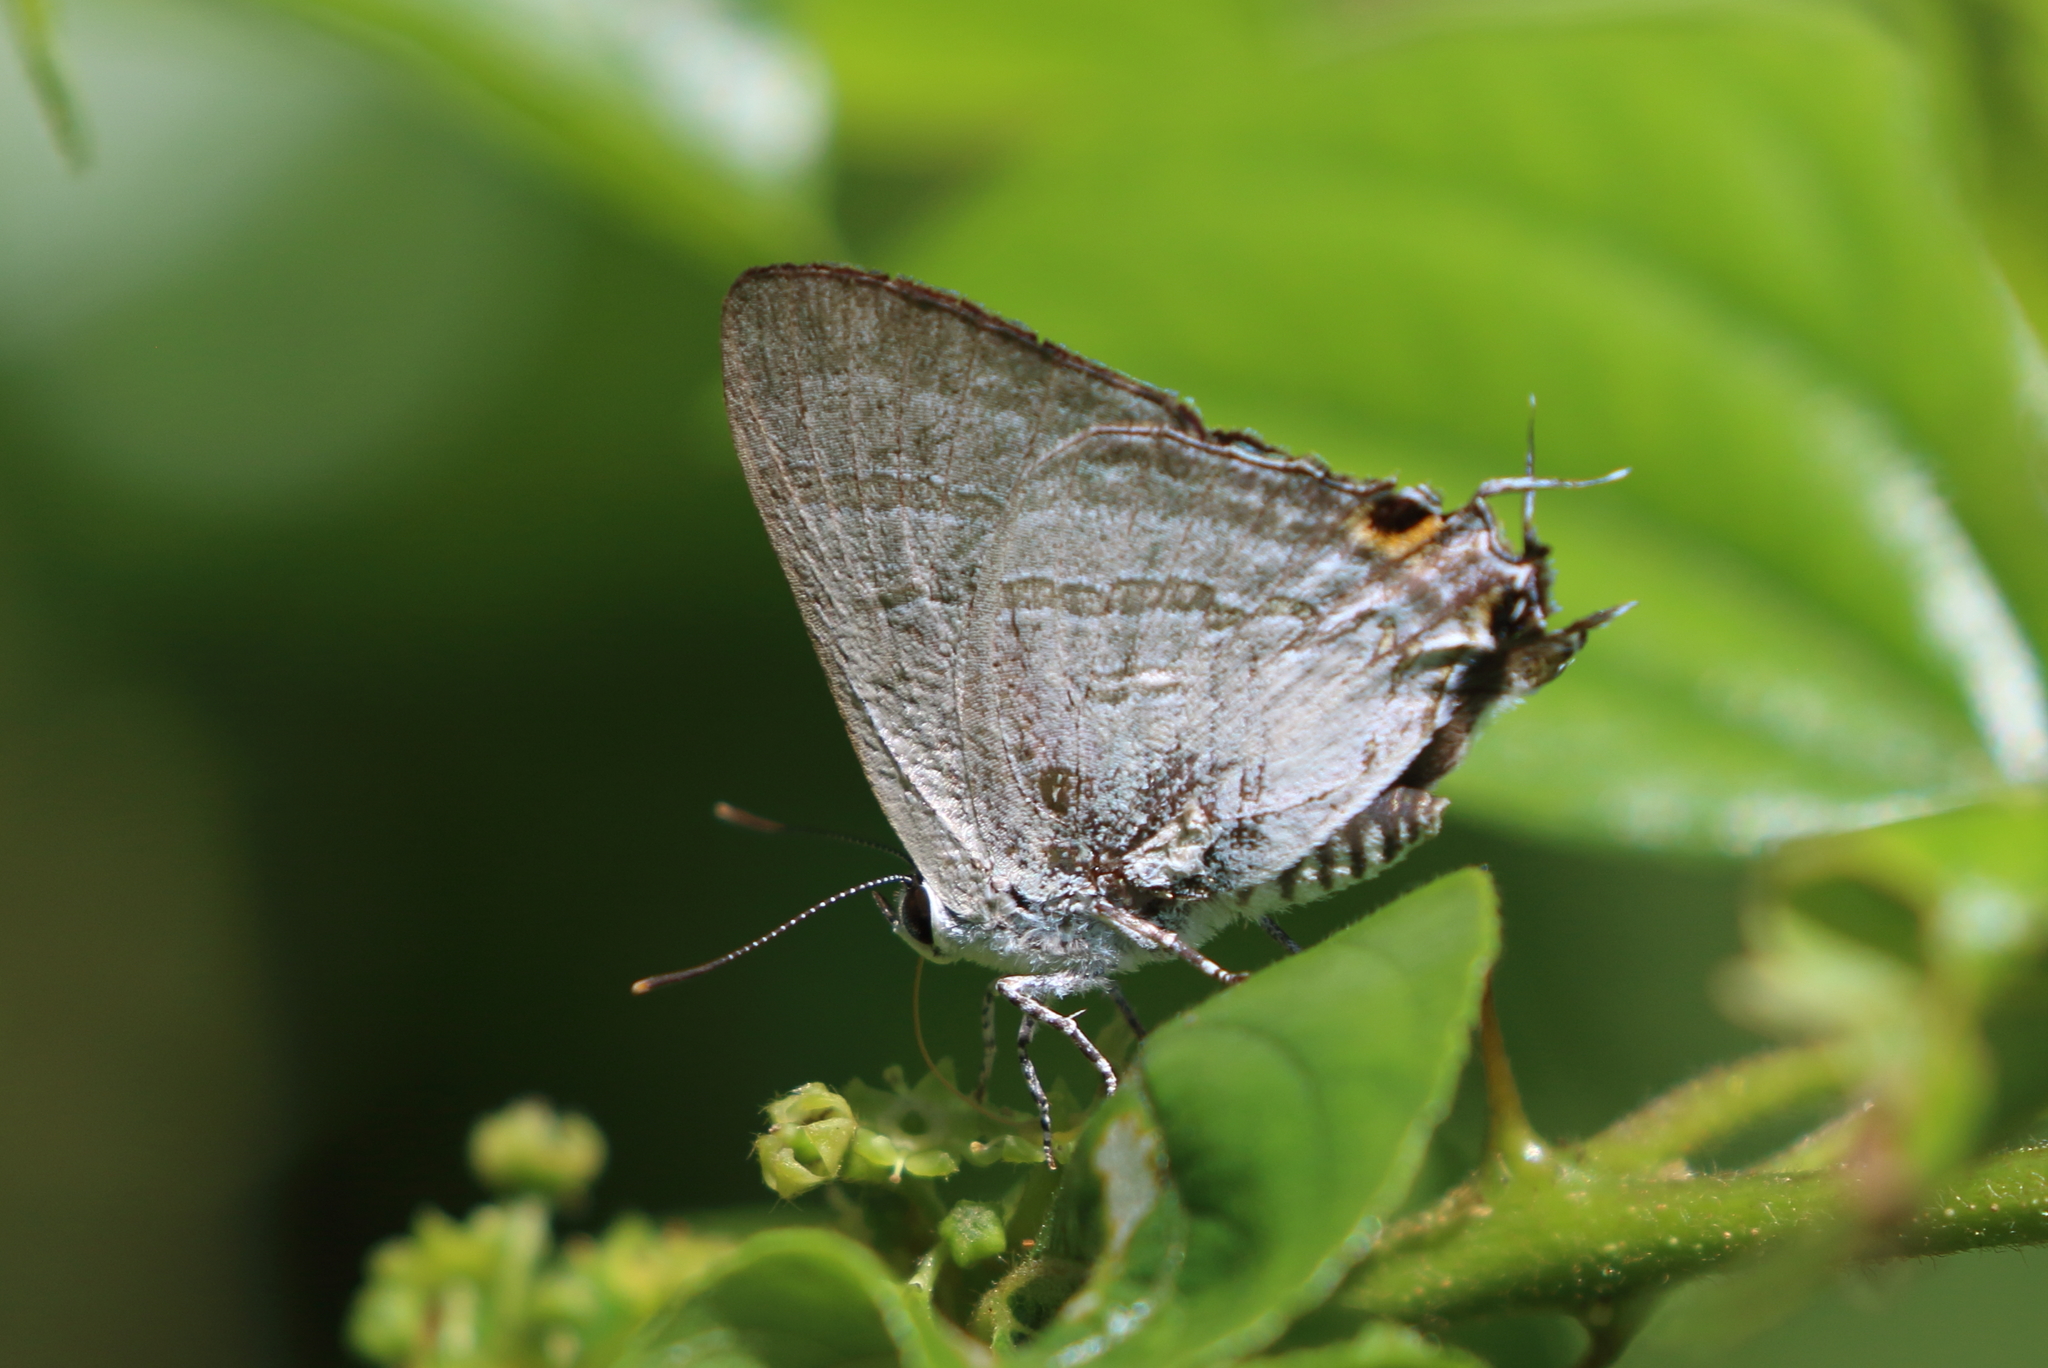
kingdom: Animalia
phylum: Arthropoda
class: Insecta
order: Lepidoptera
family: Lycaenidae
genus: Hypolycaena
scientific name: Hypolycaena phorbas
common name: Black-spotted flash
